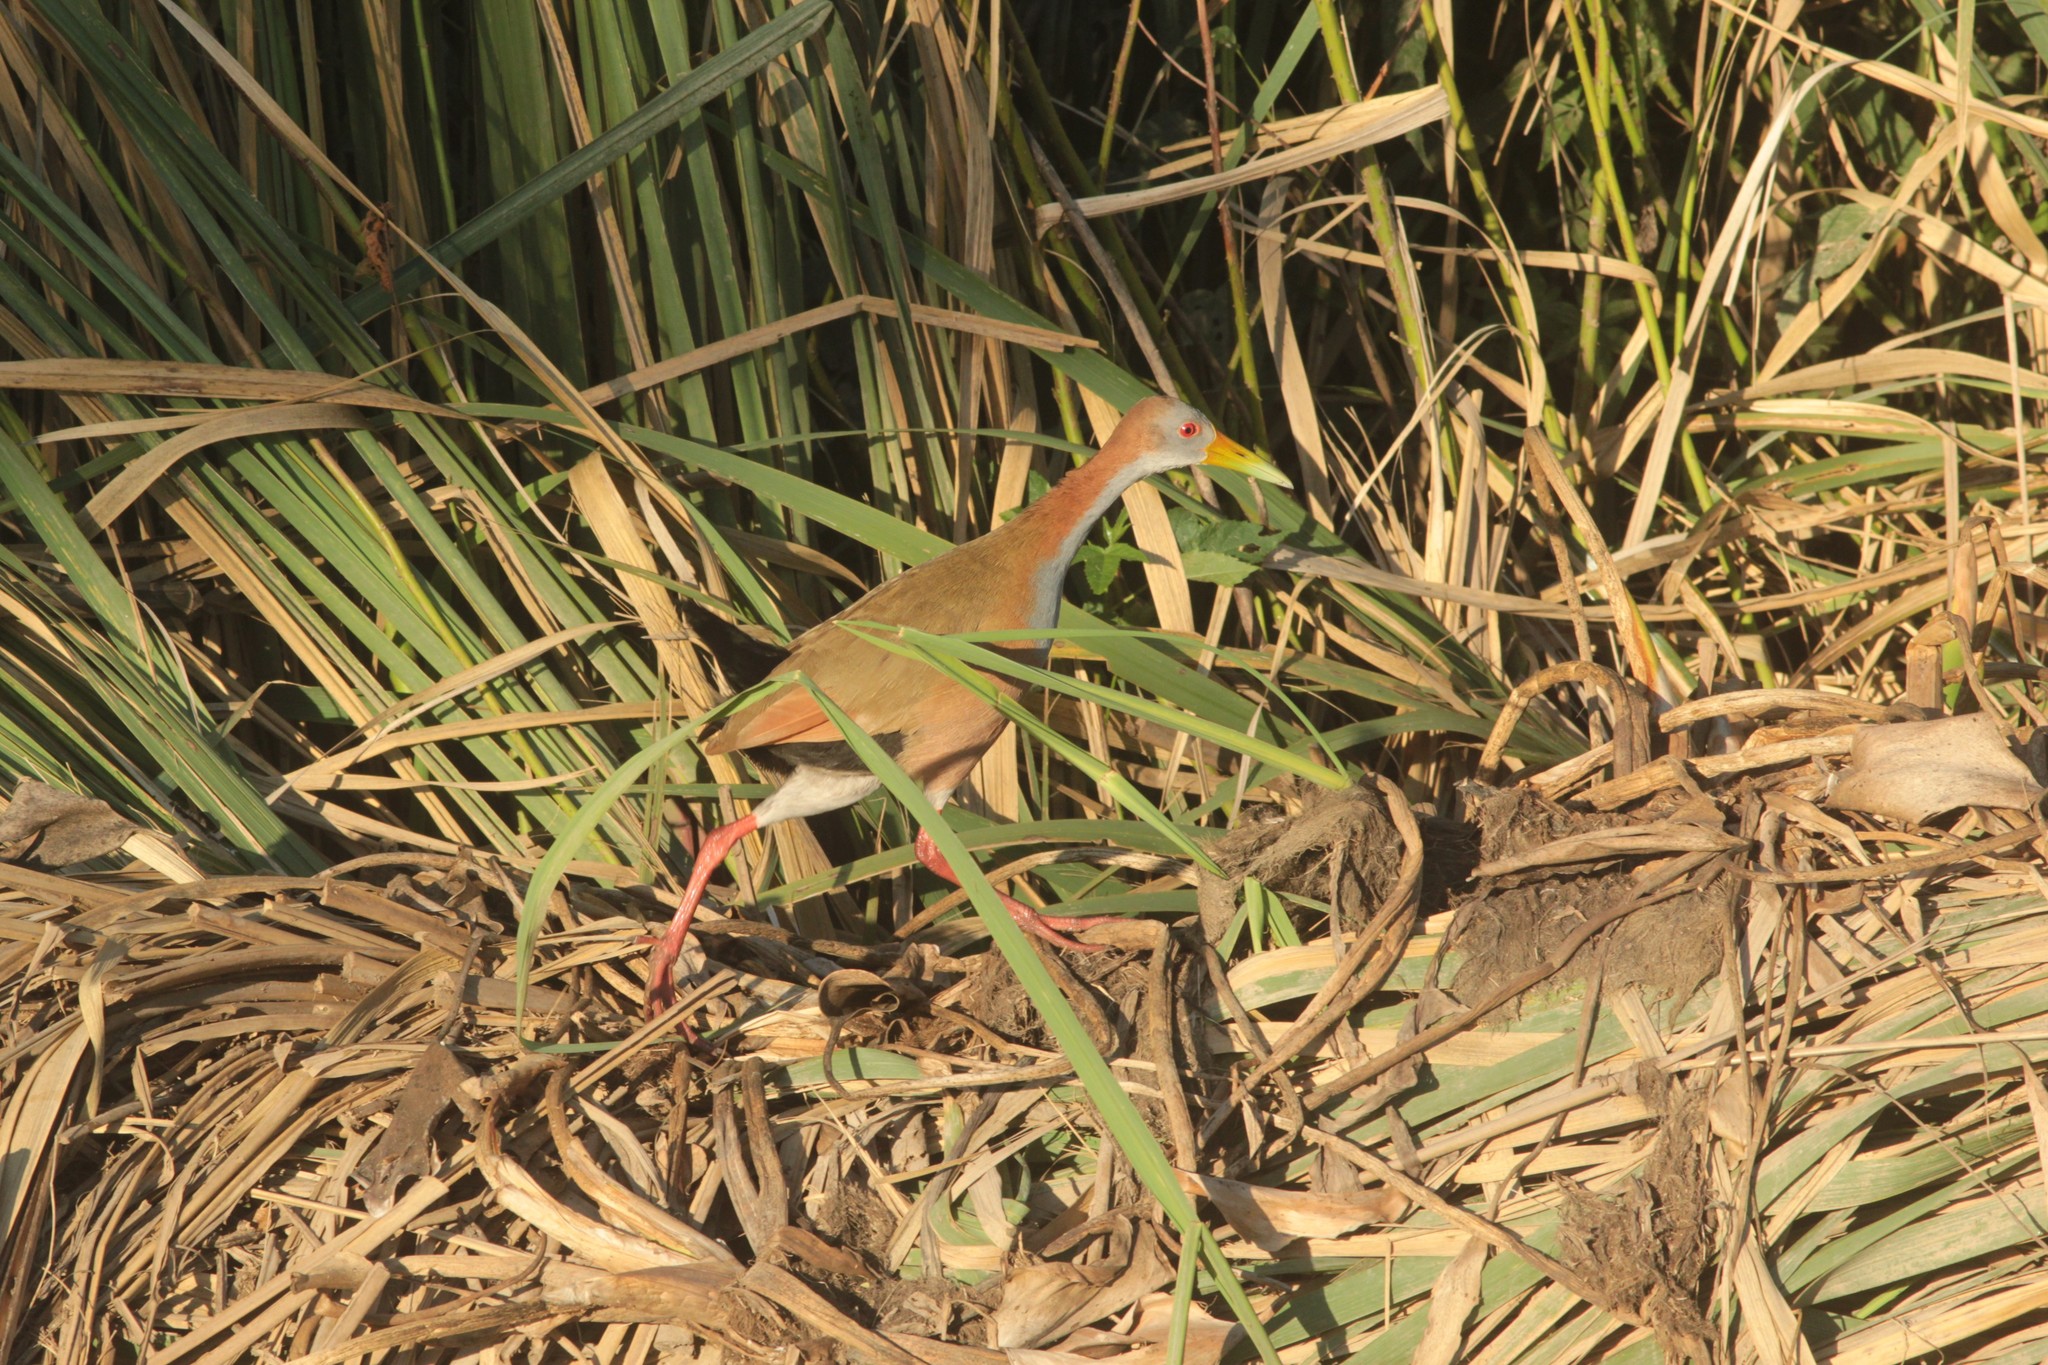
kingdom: Animalia
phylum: Chordata
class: Aves
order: Gruiformes
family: Rallidae
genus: Aramides
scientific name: Aramides ypecaha
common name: Giant wood rail
